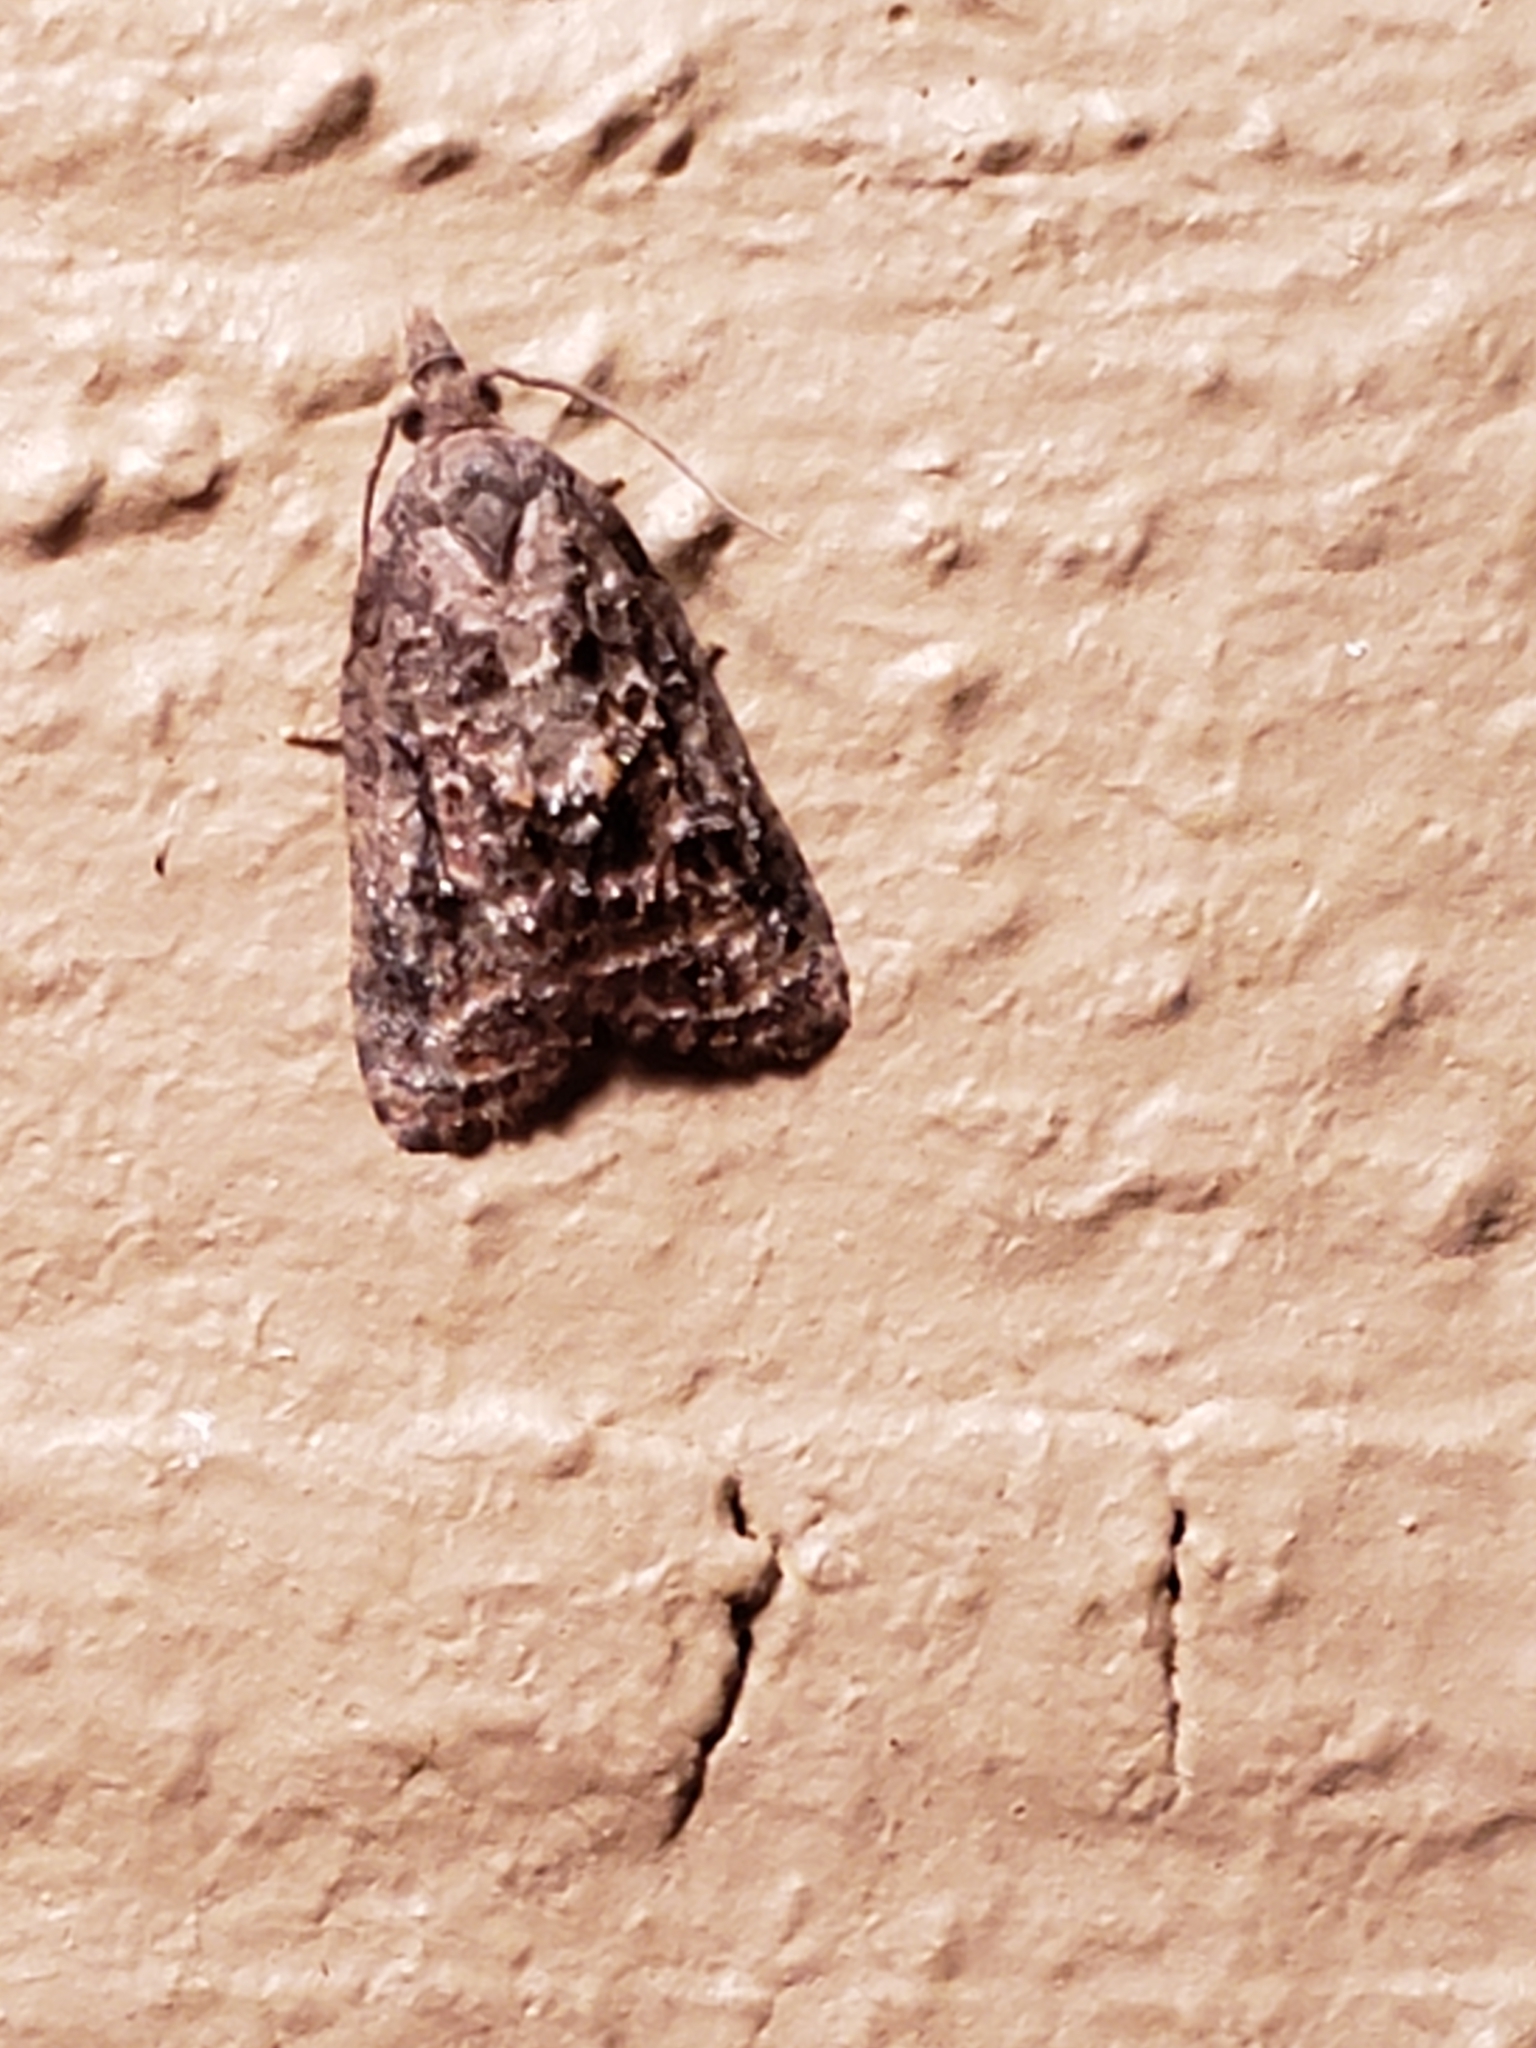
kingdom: Animalia
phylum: Arthropoda
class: Insecta
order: Lepidoptera
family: Tortricidae
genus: Platynota
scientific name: Platynota idaeusalis
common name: Tufted apple bud moth
